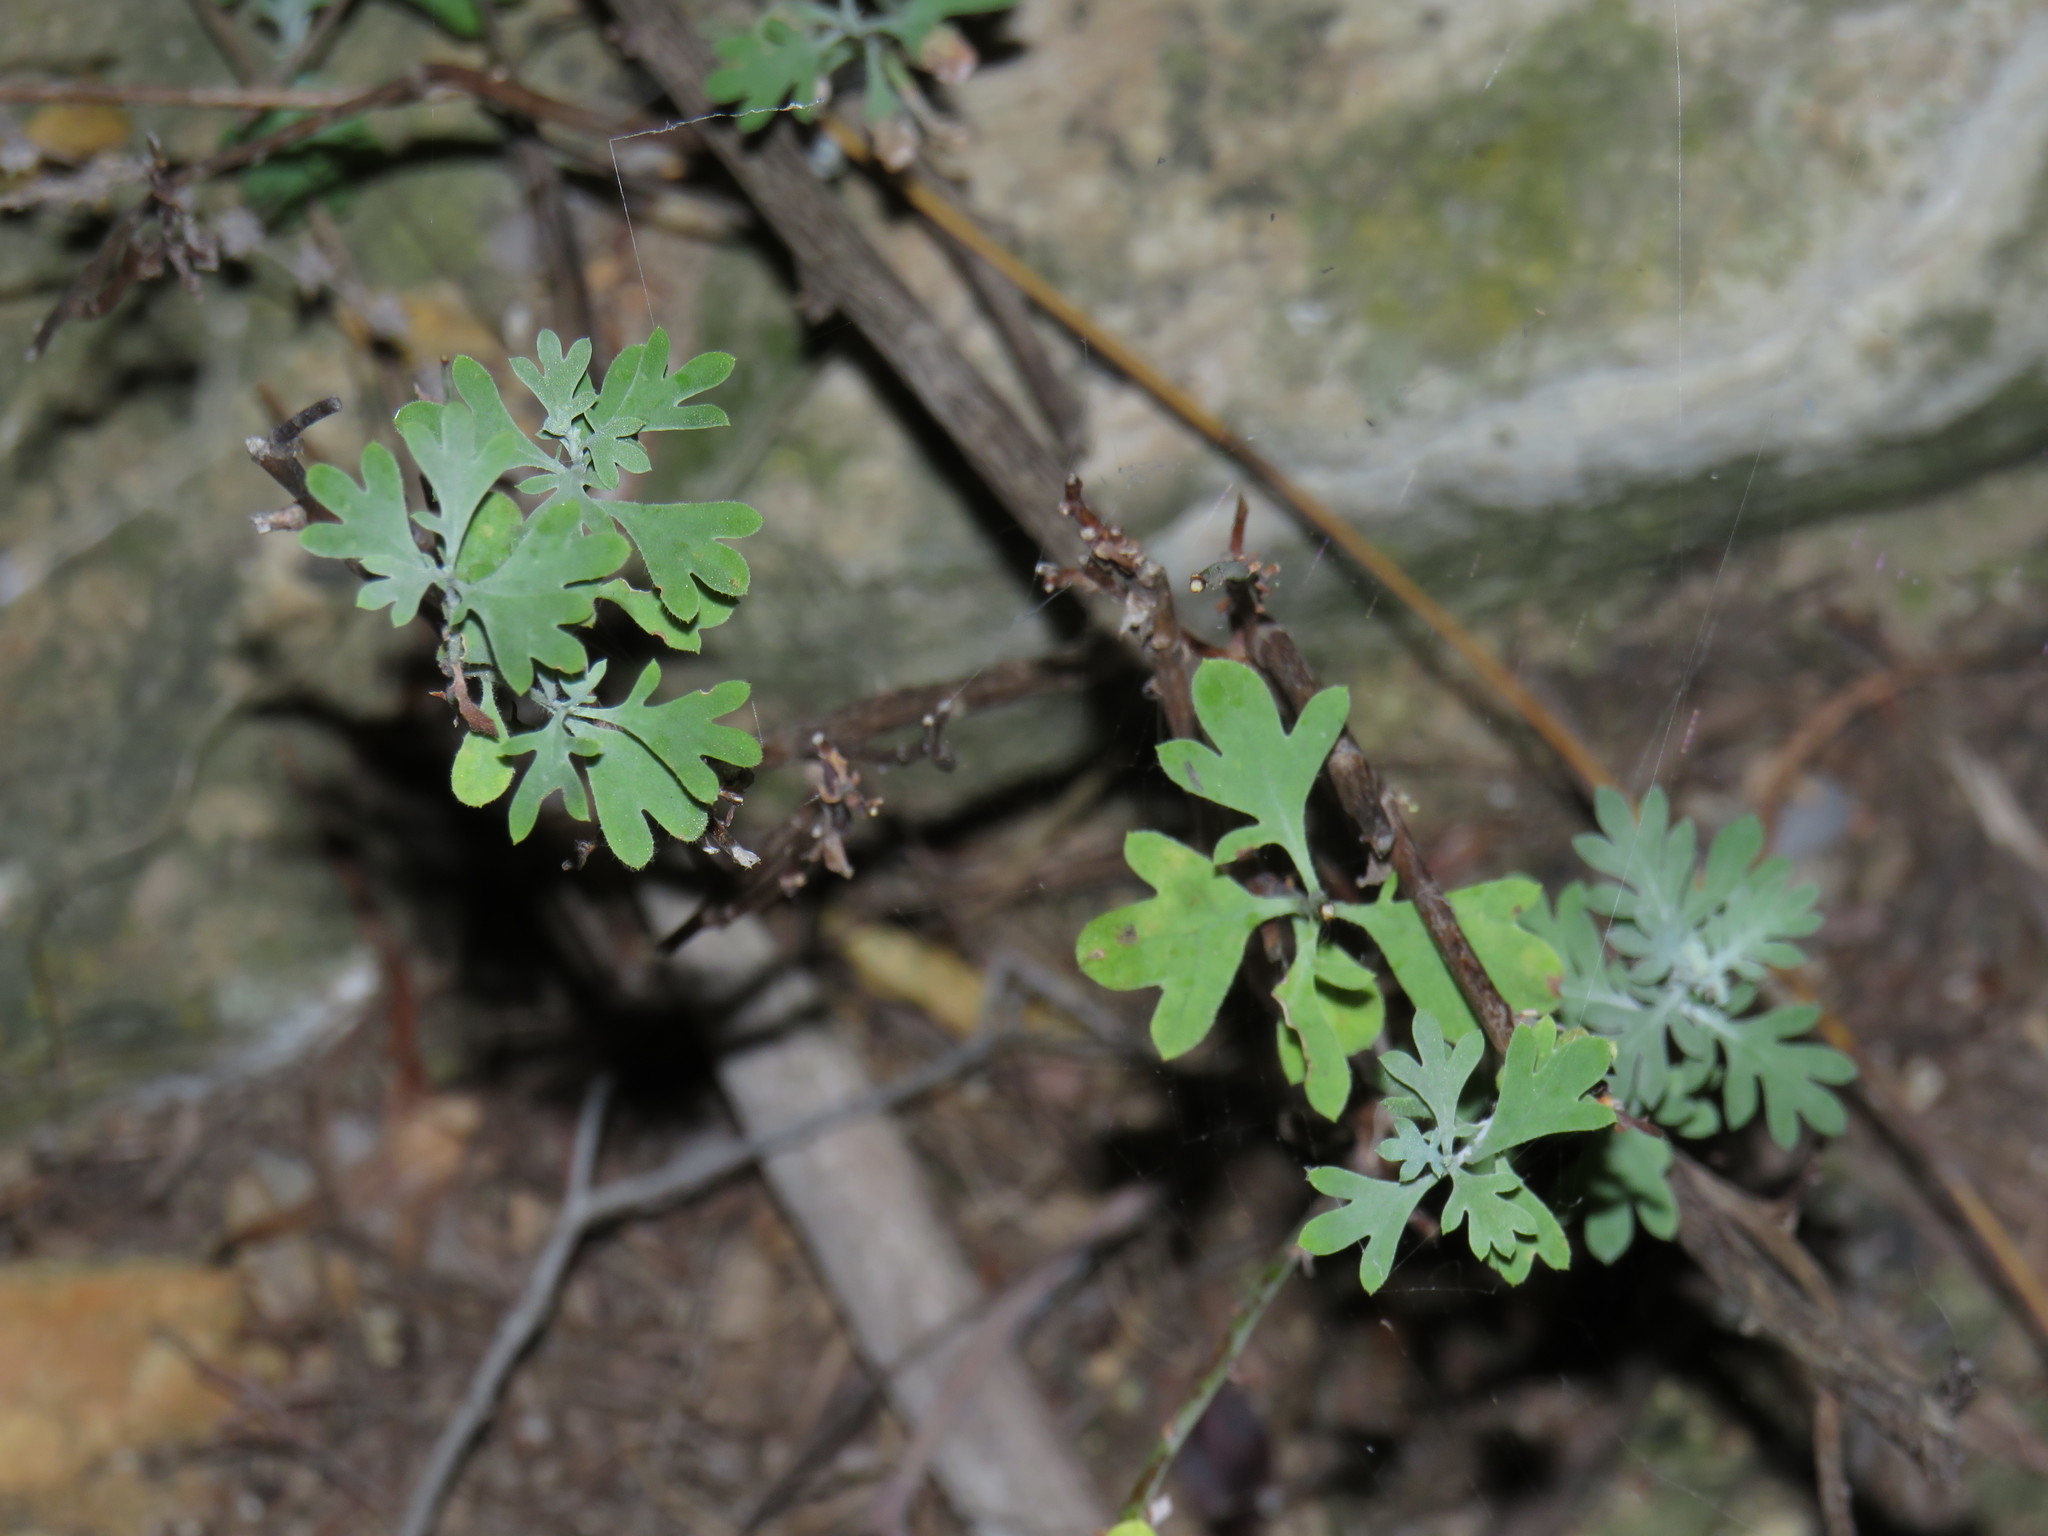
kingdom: Plantae
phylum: Tracheophyta
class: Magnoliopsida
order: Asterales
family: Asteraceae
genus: Lidbeckia
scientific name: Lidbeckia pectinata
